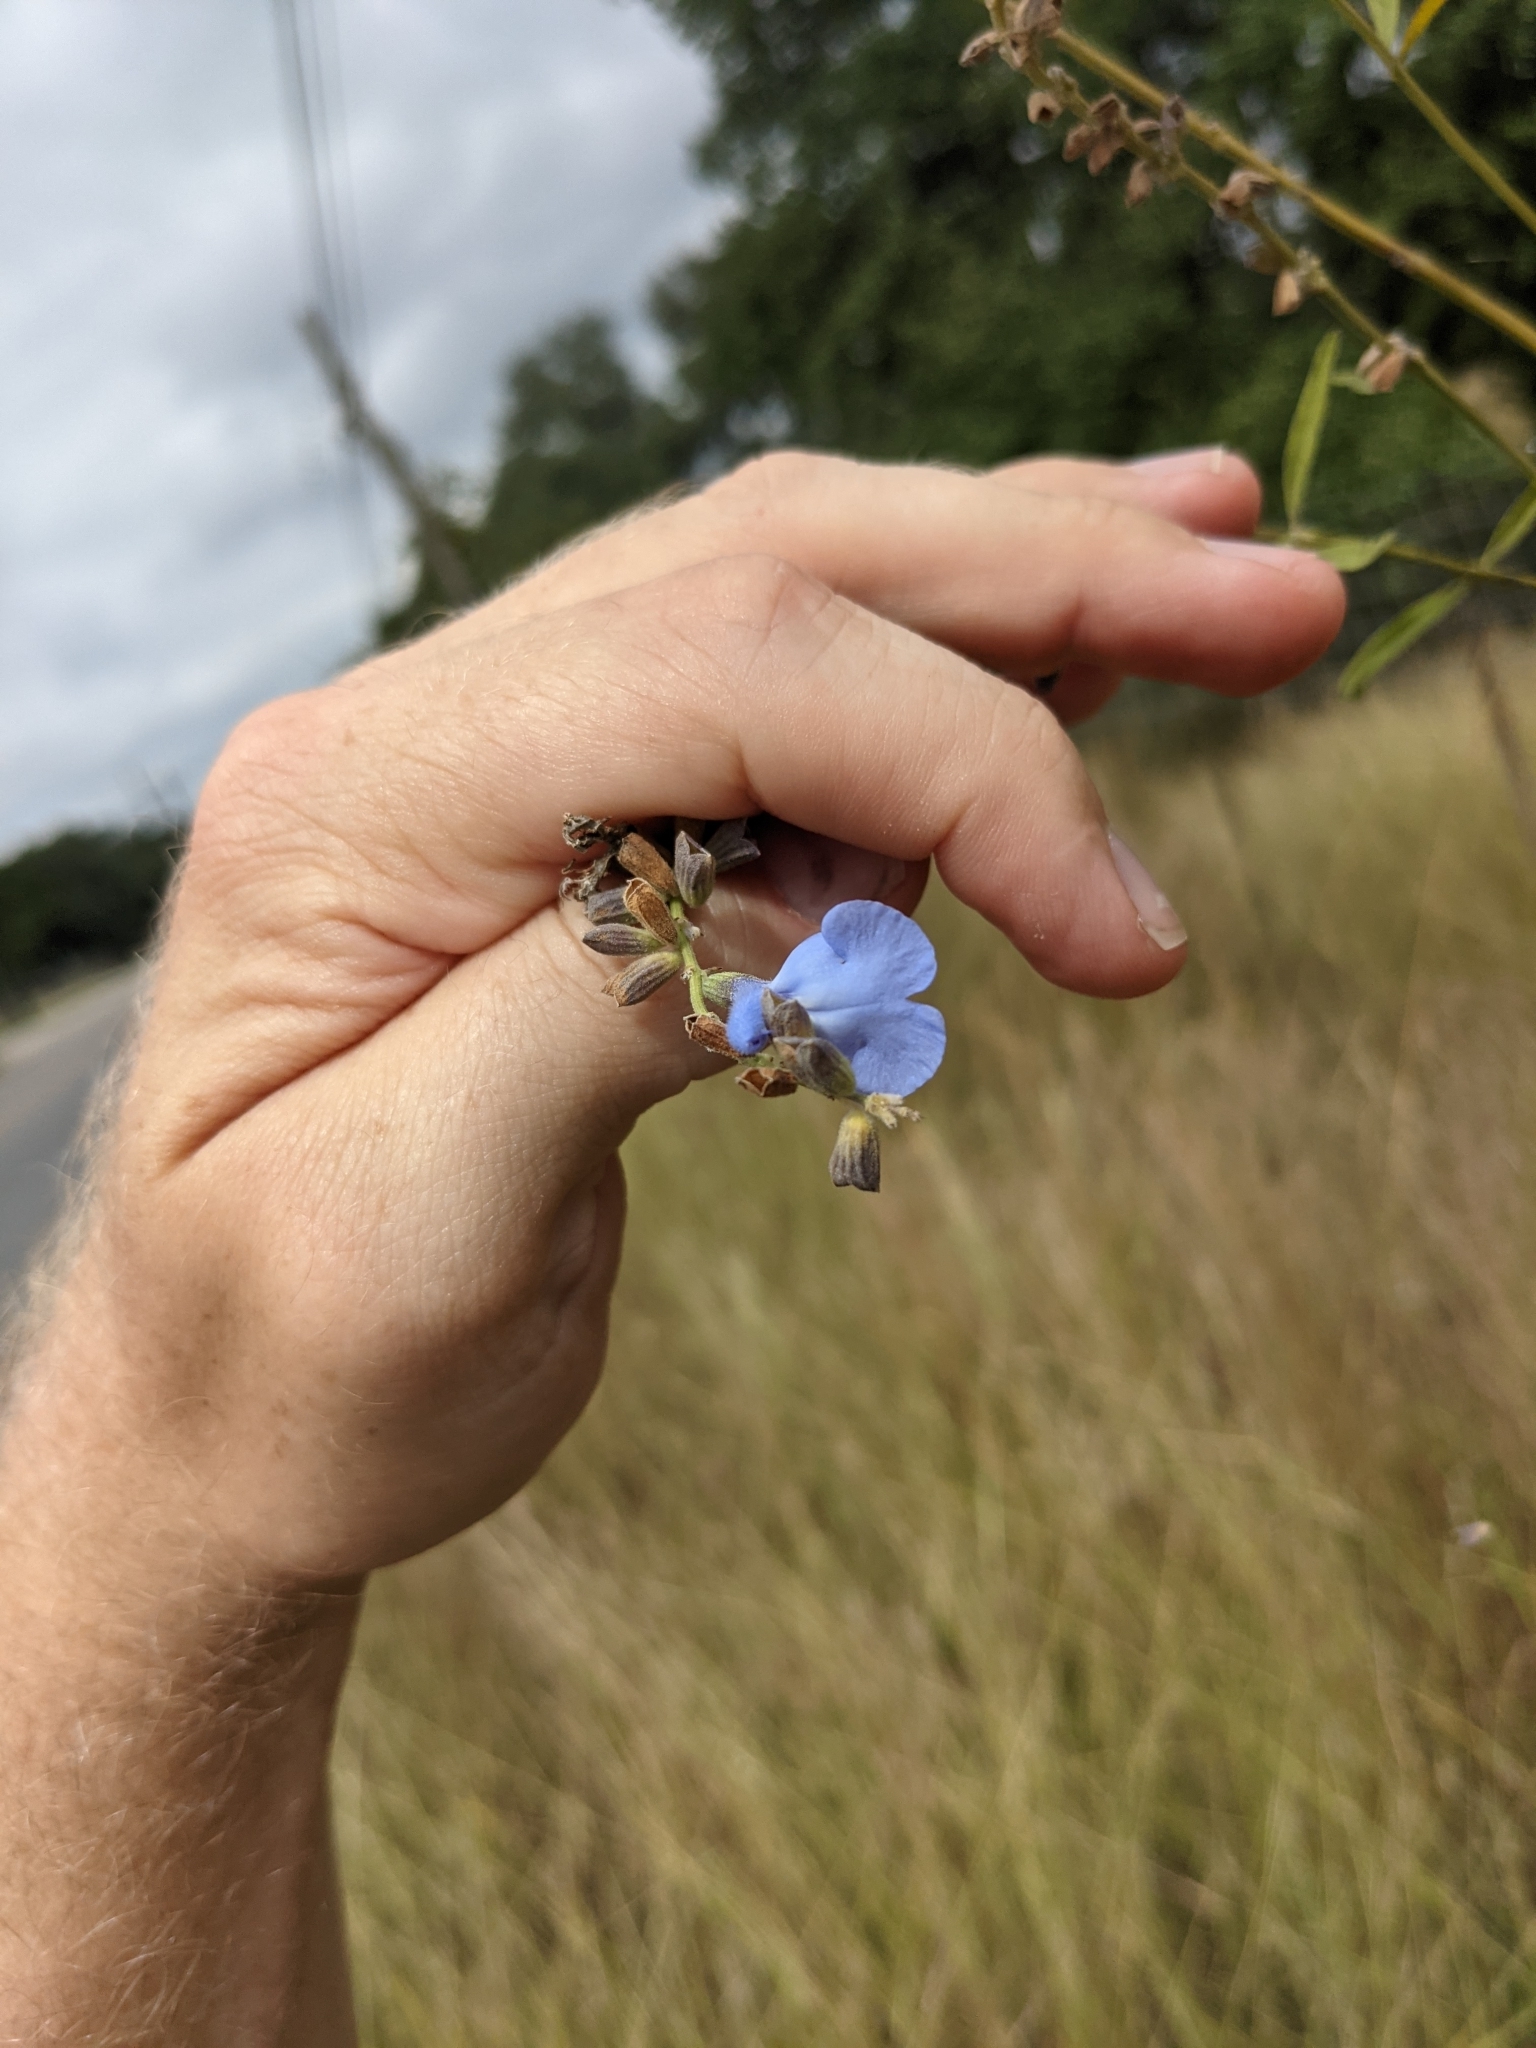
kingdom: Plantae
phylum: Tracheophyta
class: Magnoliopsida
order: Lamiales
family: Lamiaceae
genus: Salvia
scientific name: Salvia azurea
